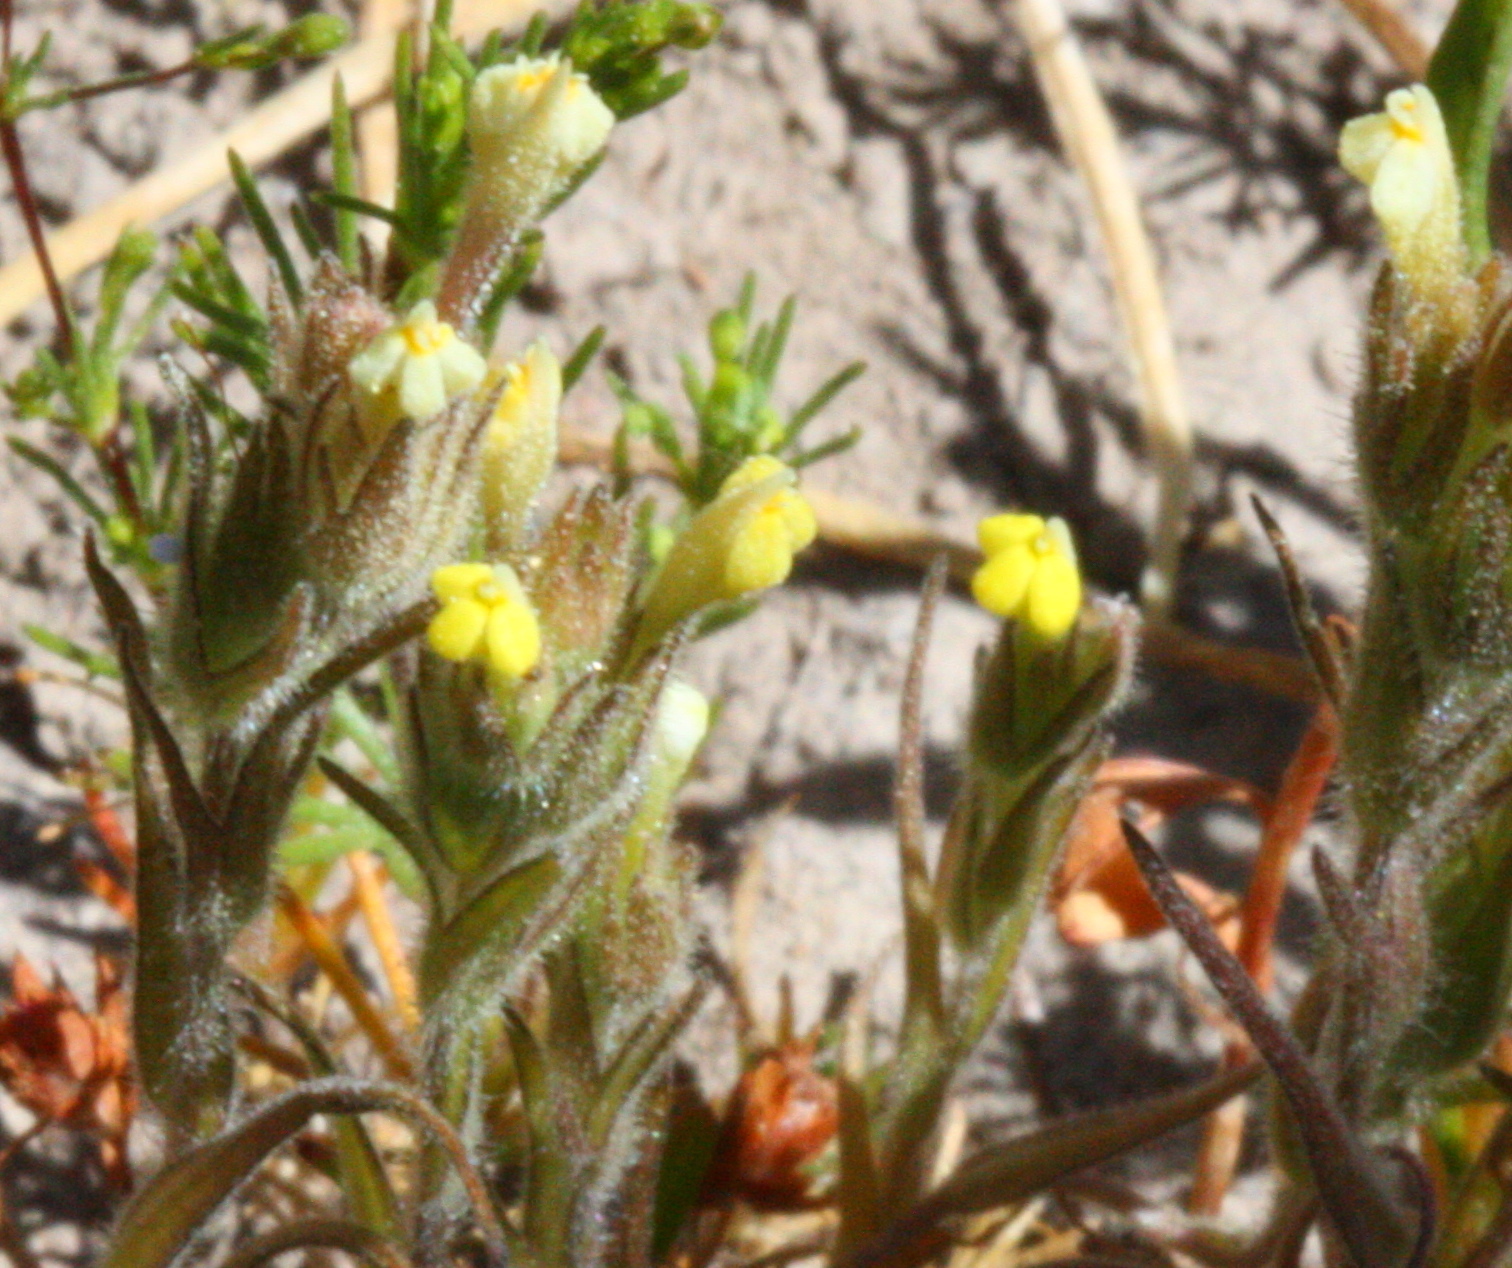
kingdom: Plantae
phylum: Tracheophyta
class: Magnoliopsida
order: Lamiales
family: Orobanchaceae
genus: Castilleja
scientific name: Castilleja tenuis
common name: Hairy indian paintbrush
